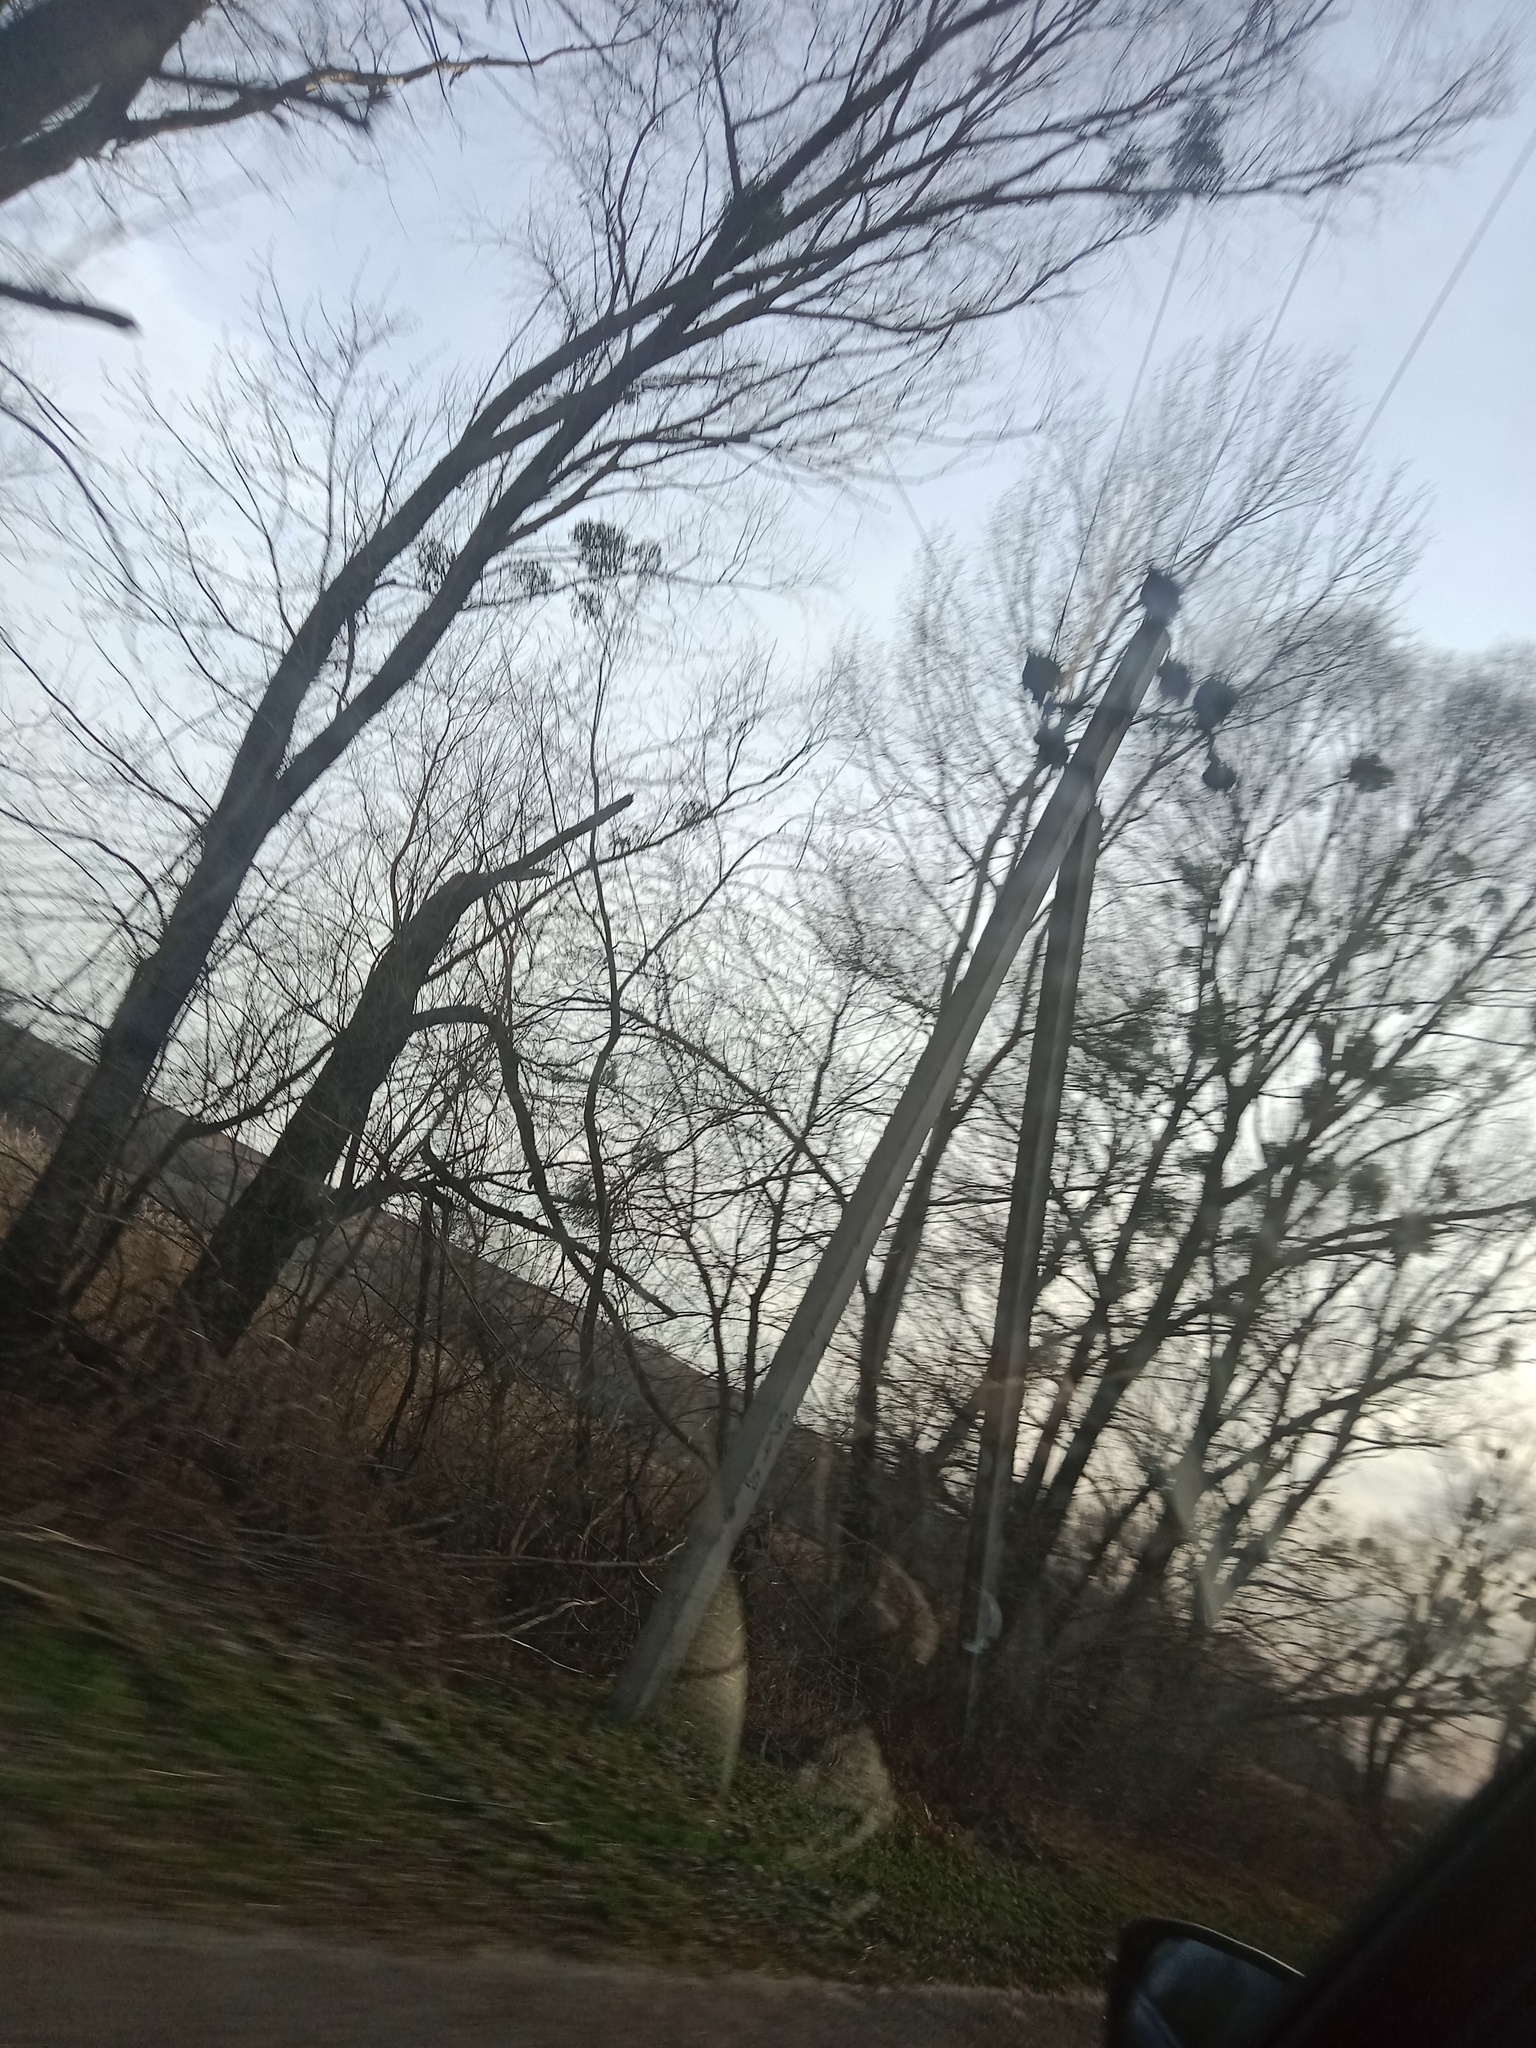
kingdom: Plantae
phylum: Tracheophyta
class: Magnoliopsida
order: Santalales
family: Viscaceae
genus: Viscum
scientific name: Viscum album
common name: Mistletoe
